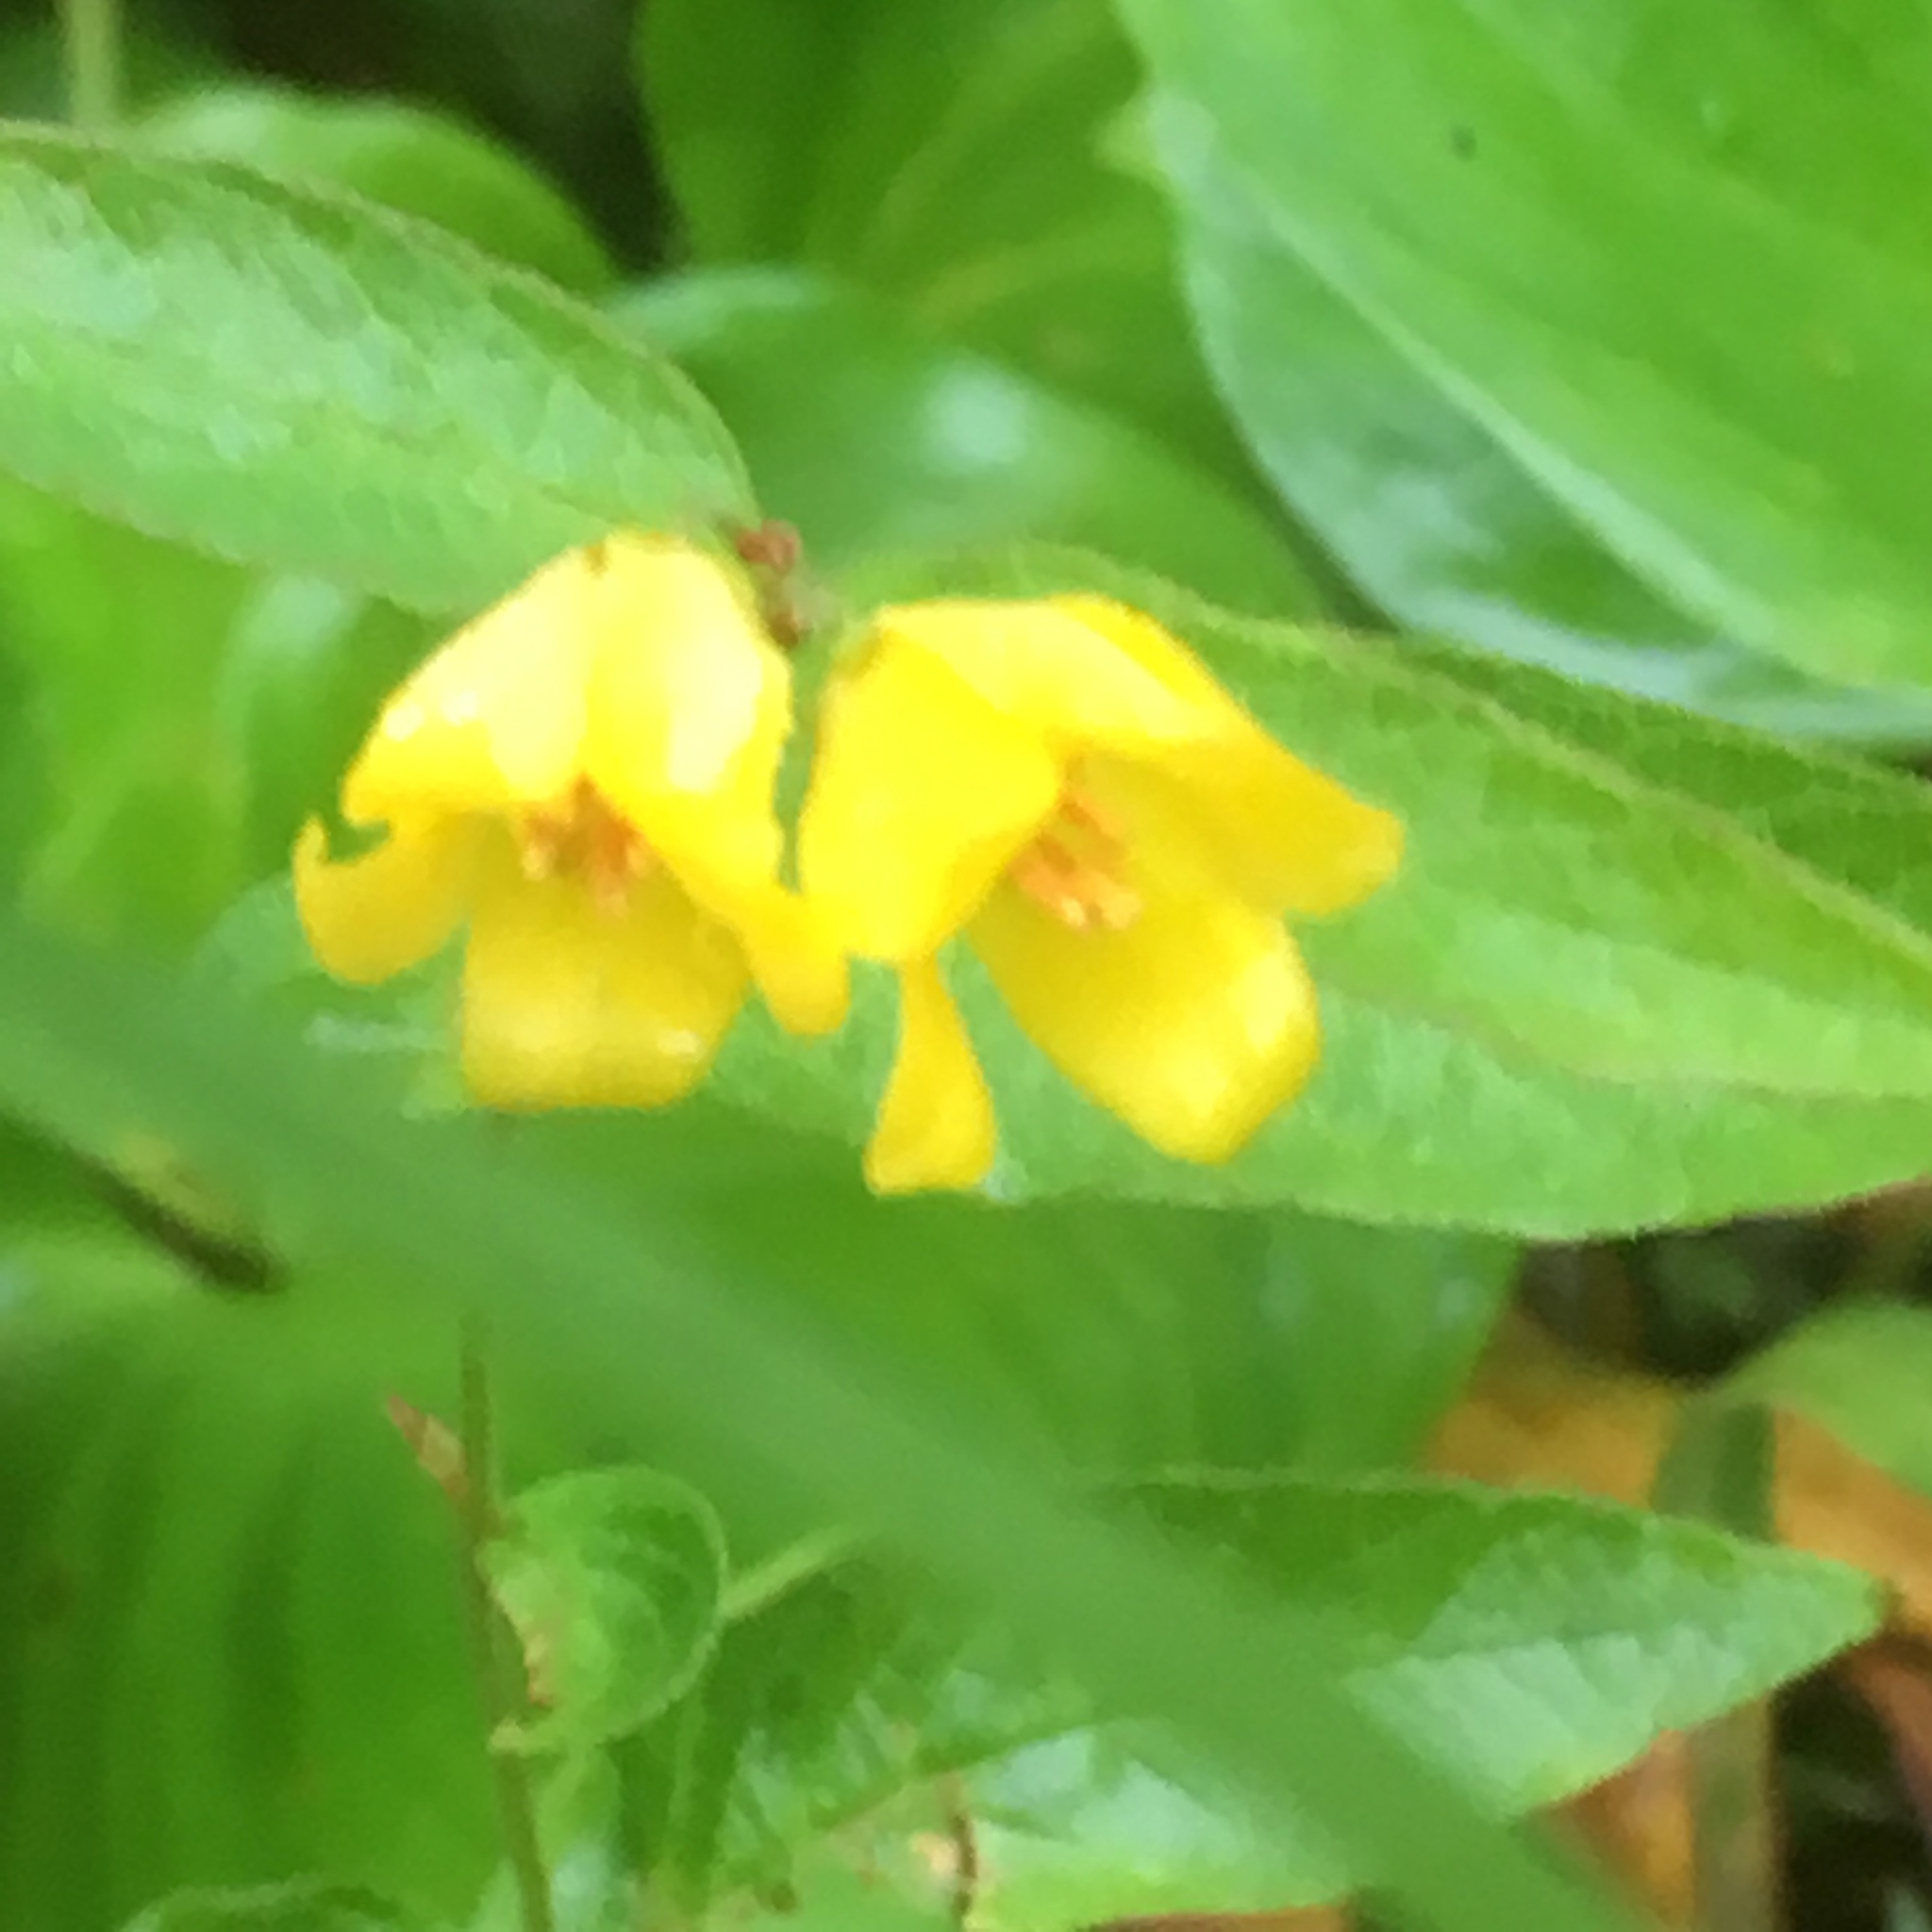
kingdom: Plantae
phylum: Tracheophyta
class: Magnoliopsida
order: Ericales
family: Primulaceae
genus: Lysimachia
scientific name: Lysimachia vulgaris
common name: Yellow loosestrife
